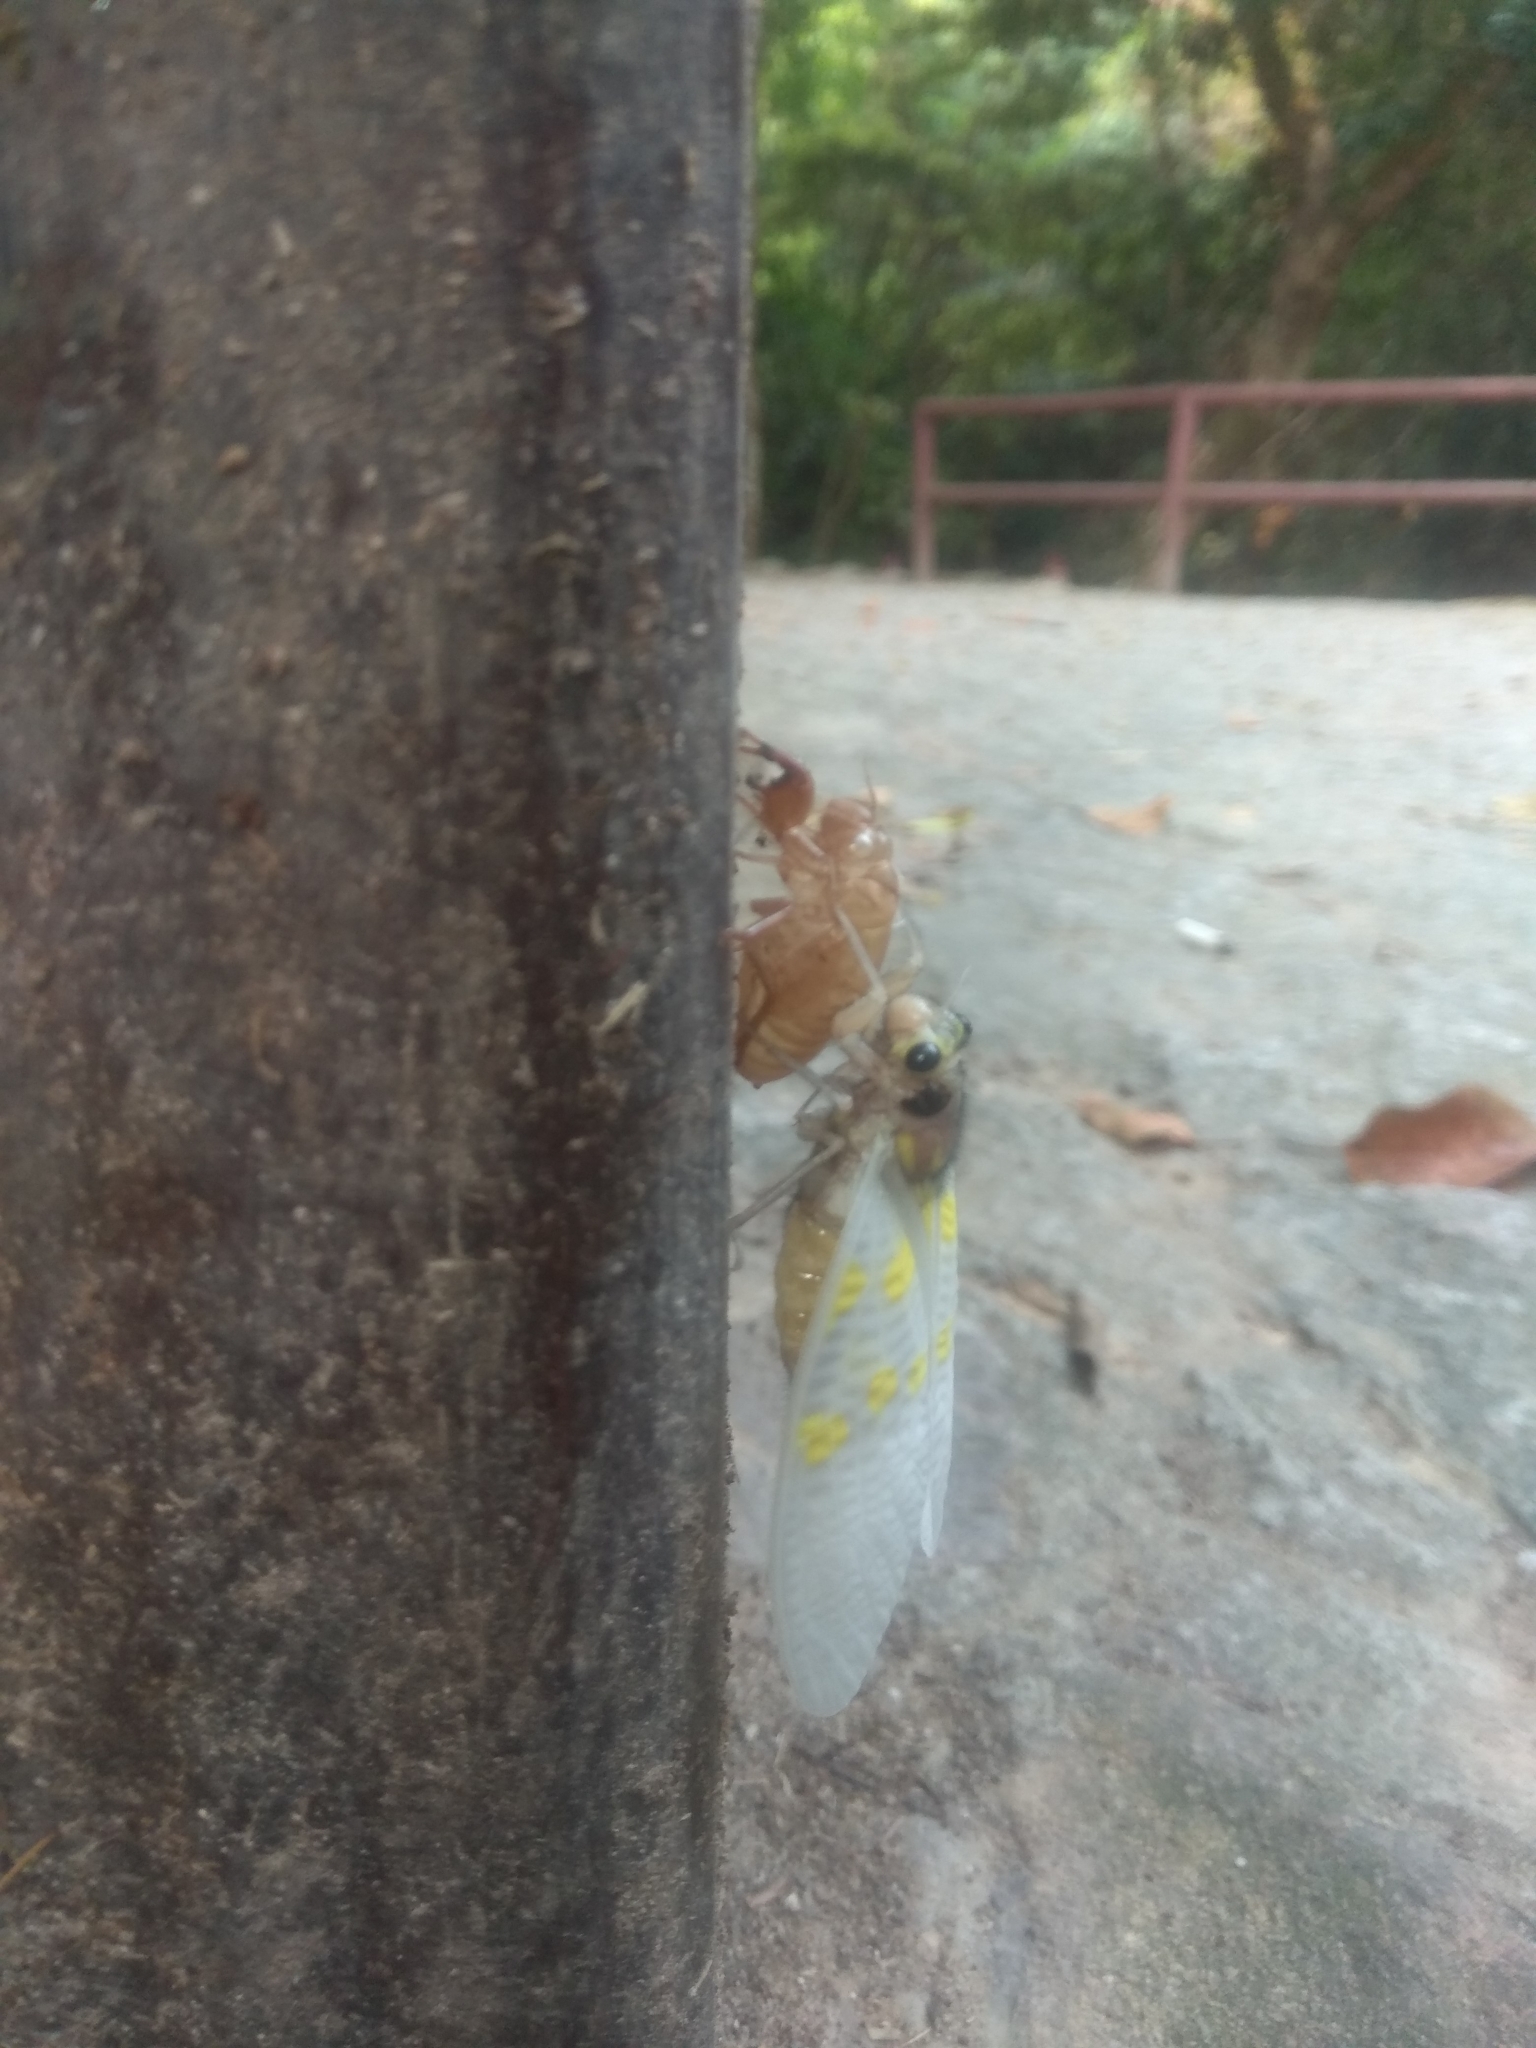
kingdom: Animalia
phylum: Arthropoda
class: Insecta
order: Hemiptera
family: Cicadidae
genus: Gaeana
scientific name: Gaeana maculata
